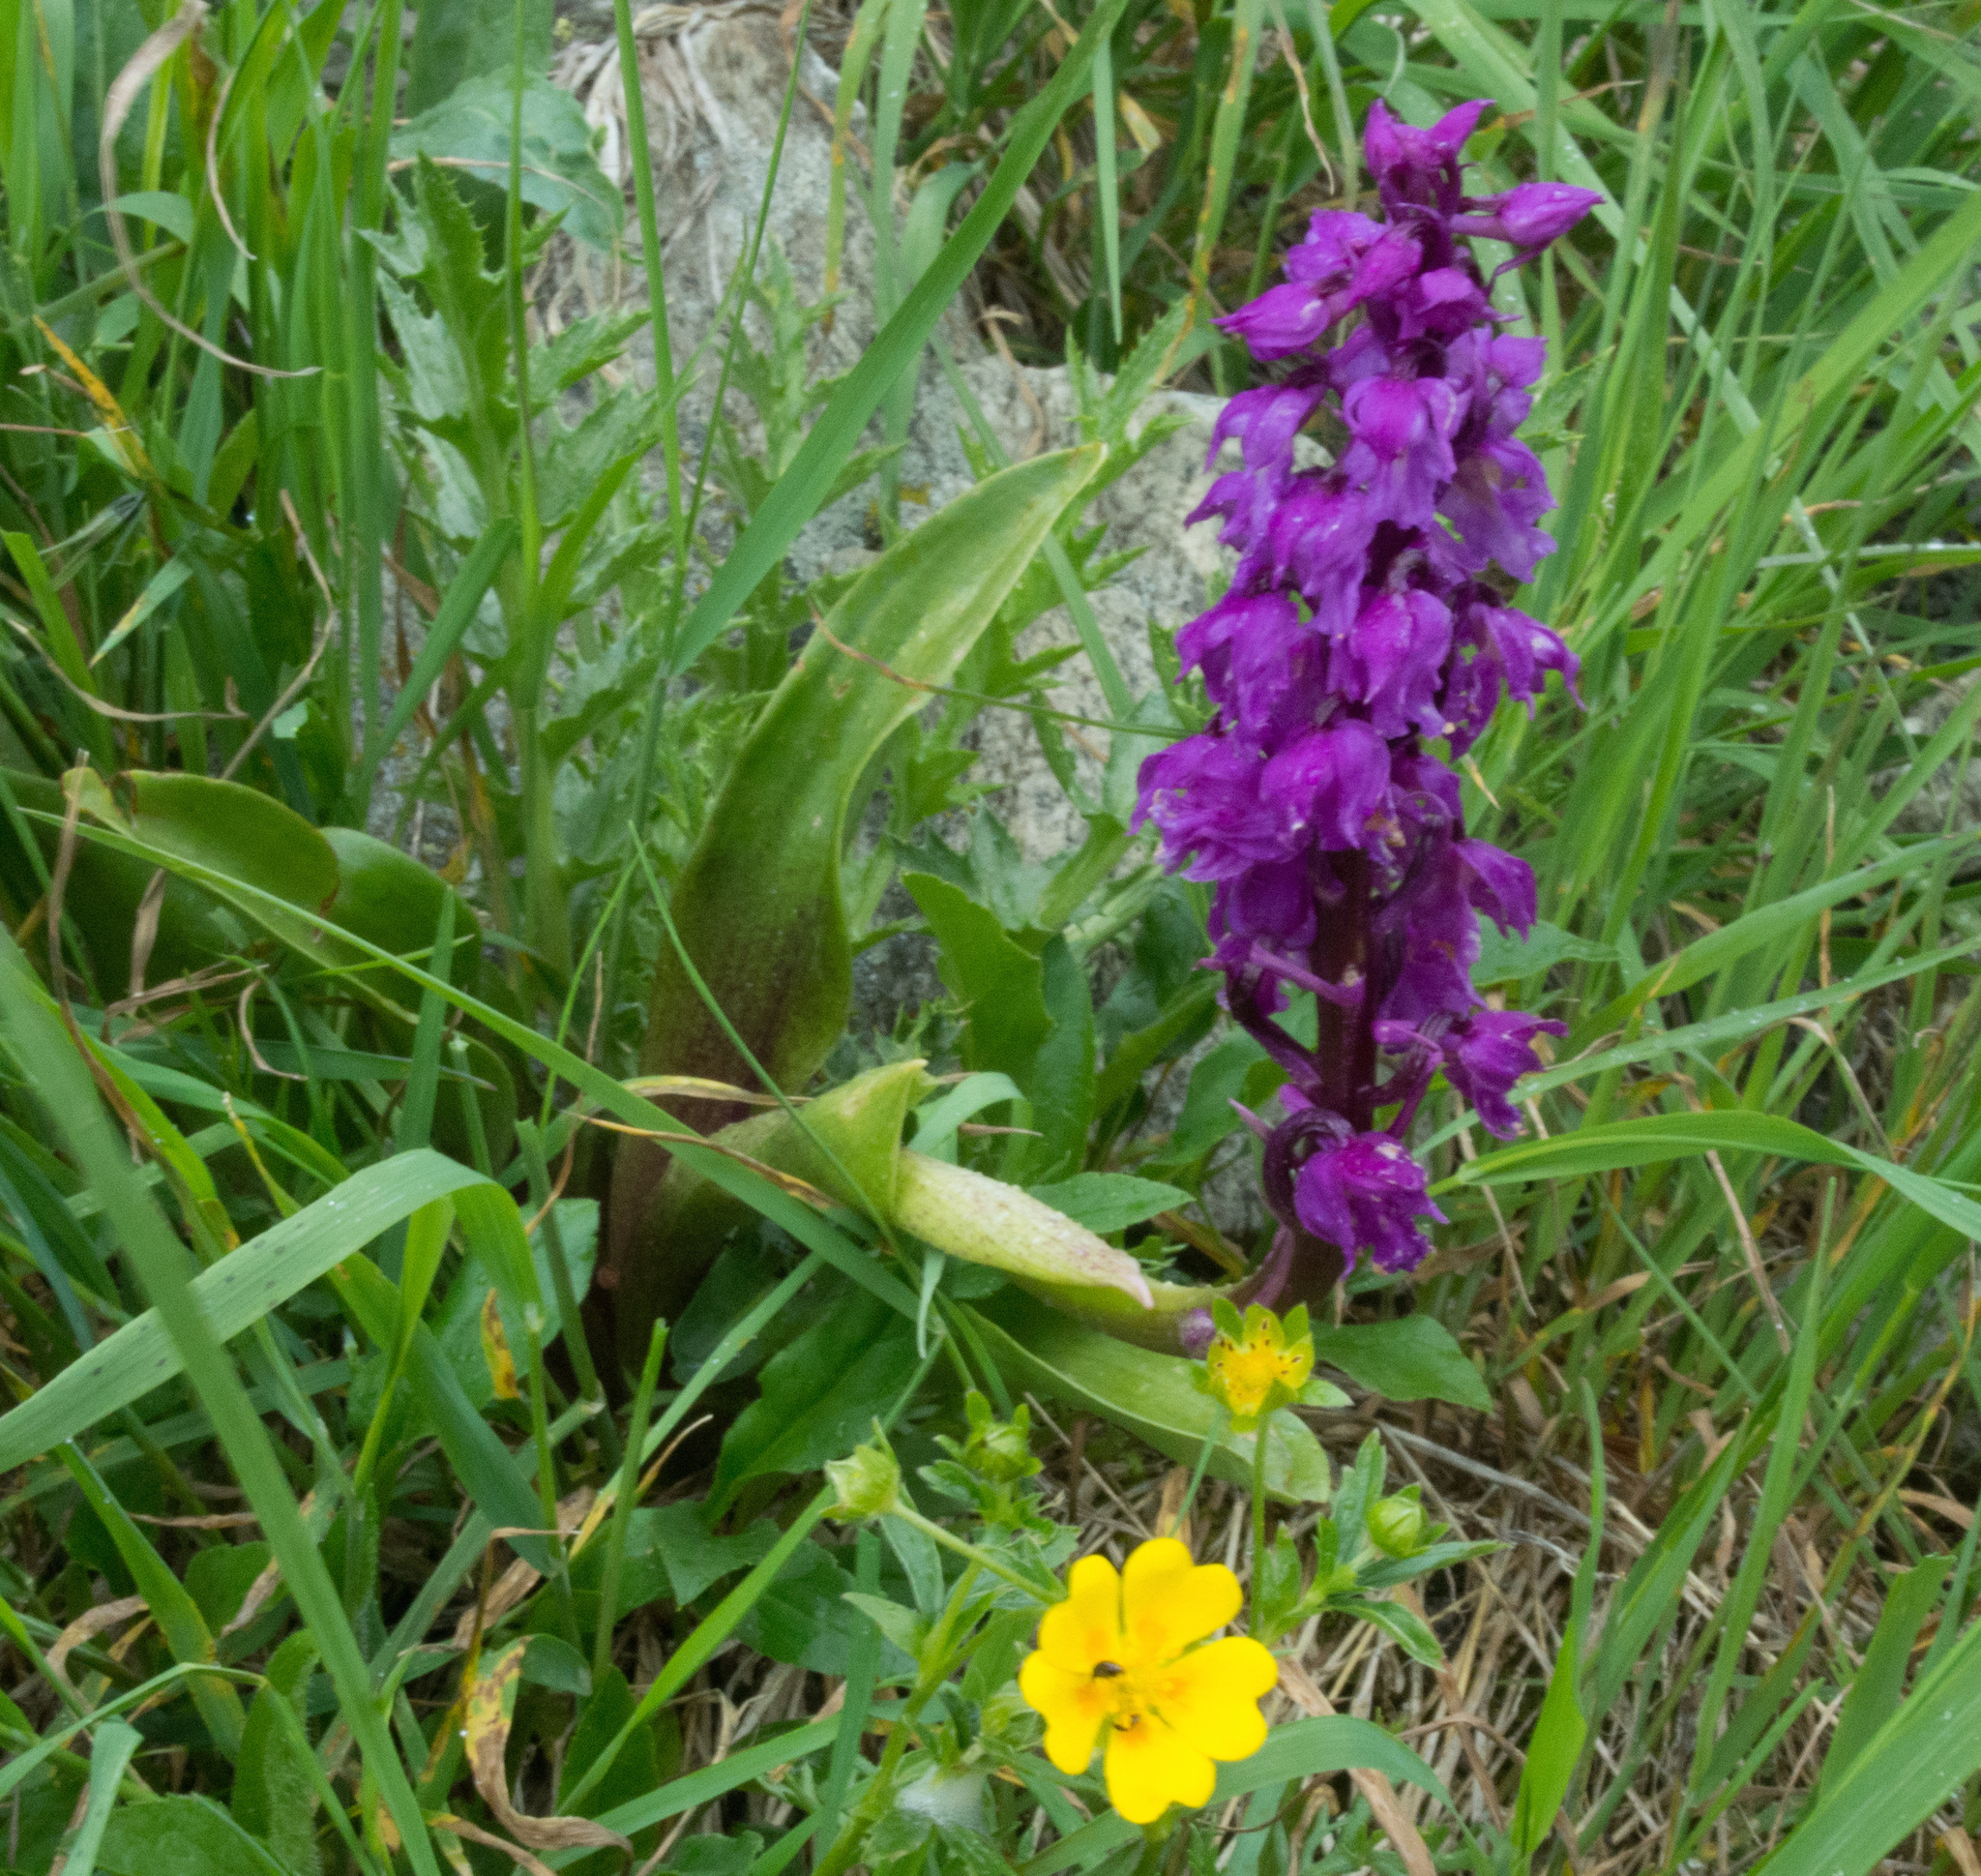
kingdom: Plantae
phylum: Tracheophyta
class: Liliopsida
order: Asparagales
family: Orchidaceae
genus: Orchis
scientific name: Orchis mascula
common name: Early-purple orchid
